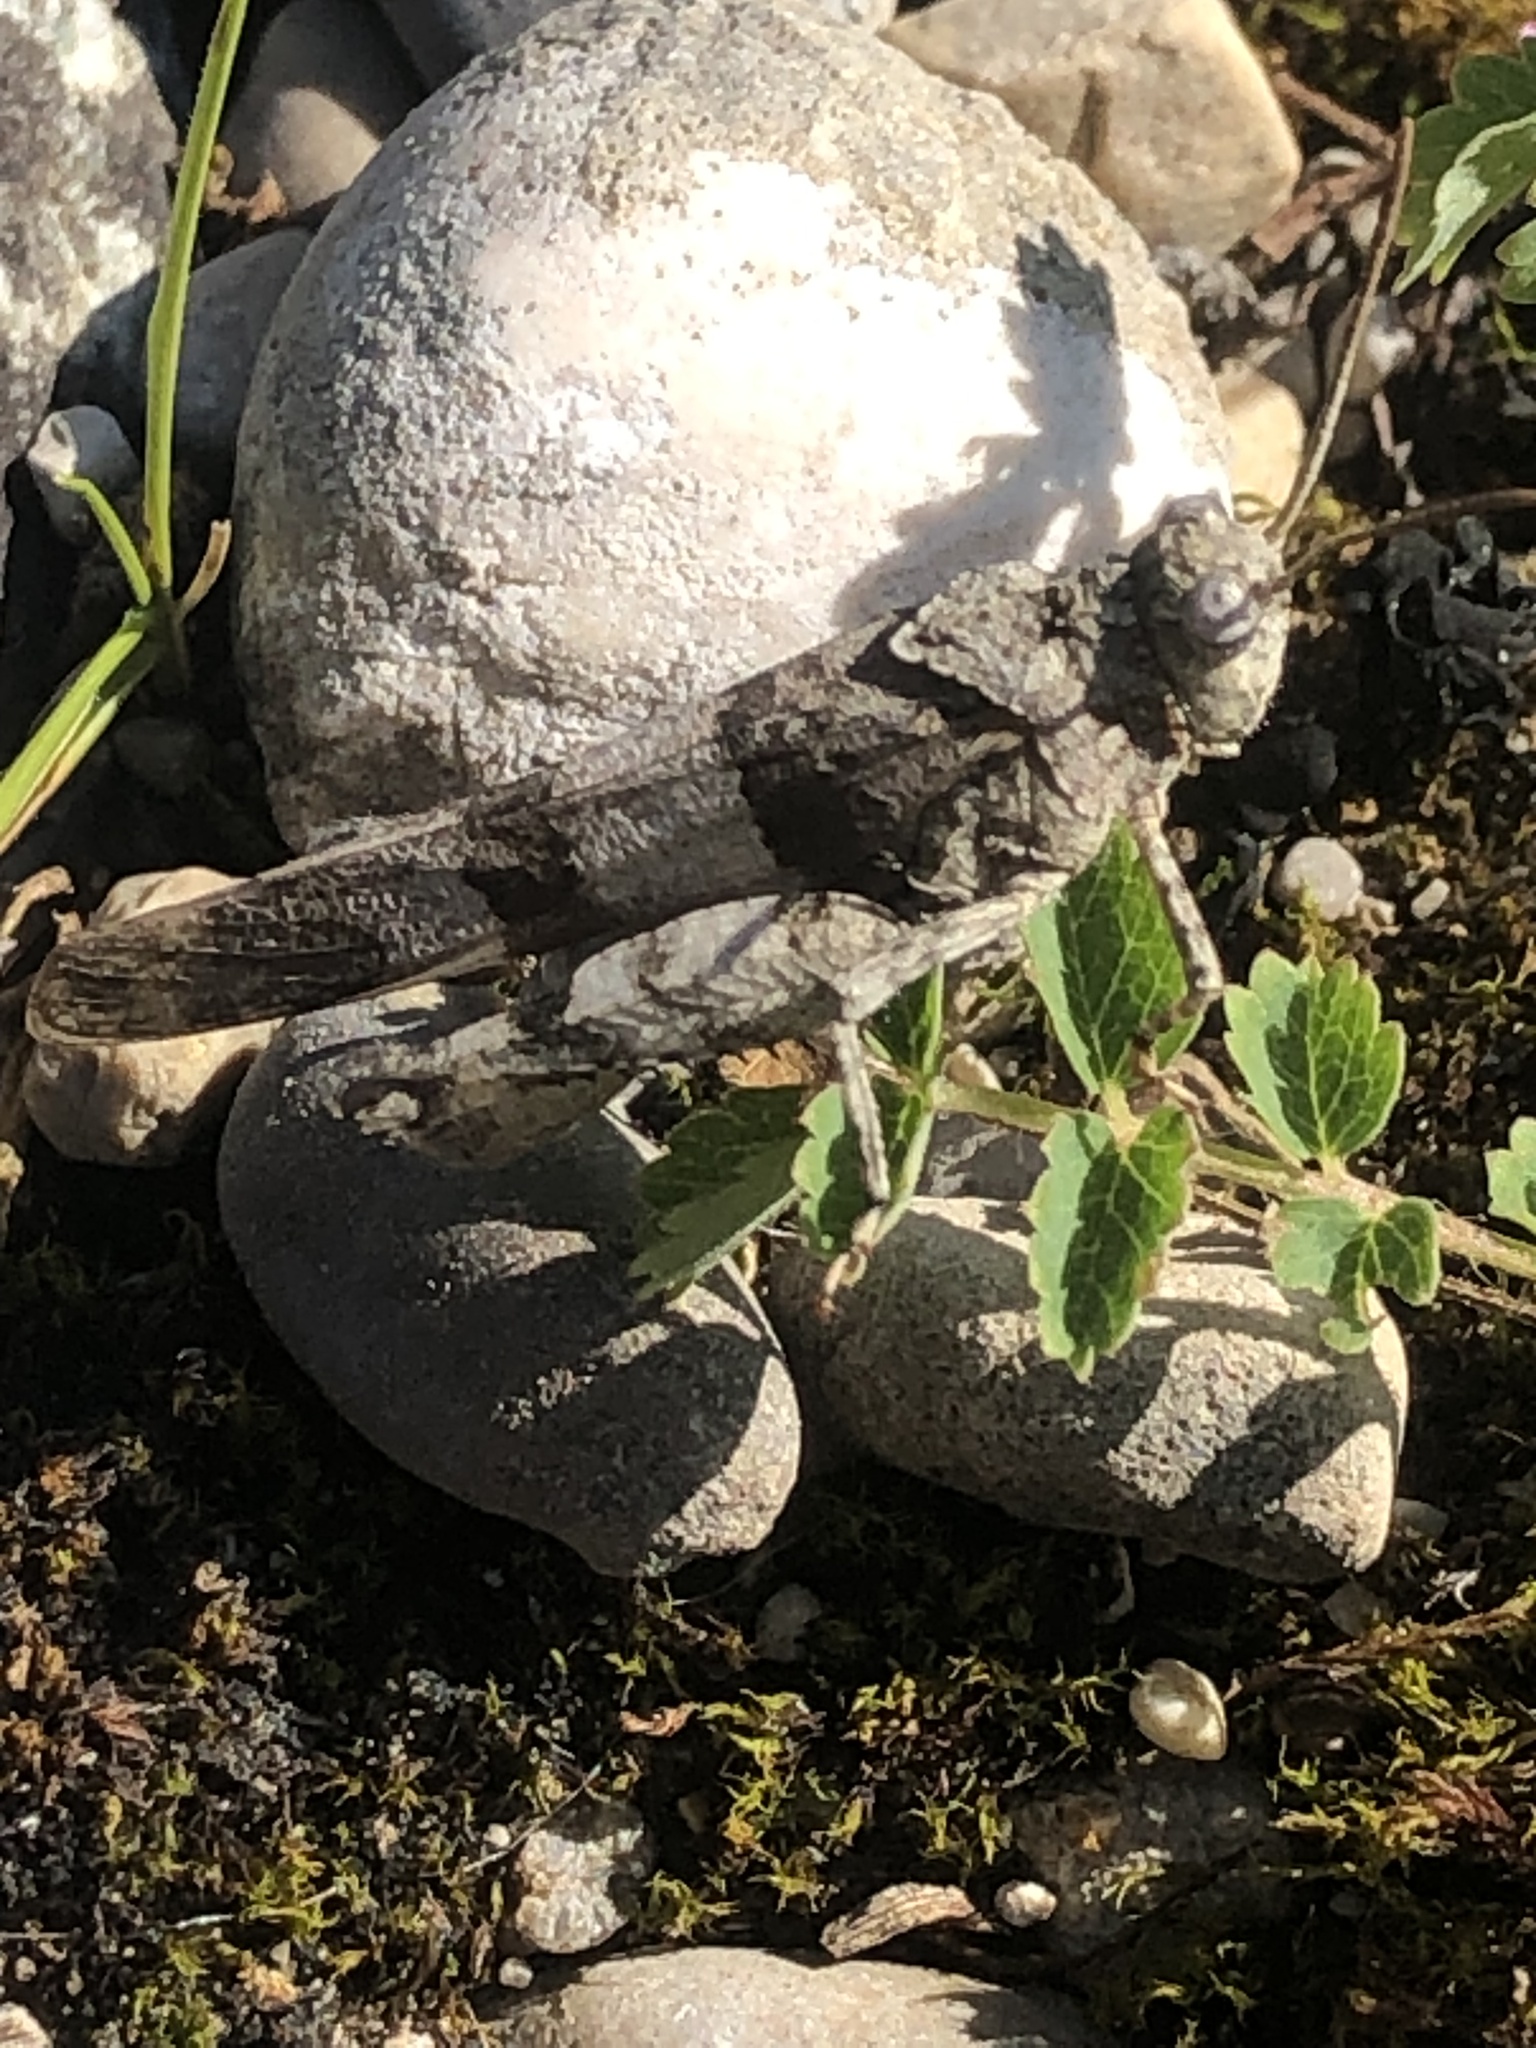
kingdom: Animalia
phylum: Arthropoda
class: Insecta
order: Orthoptera
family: Acrididae
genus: Oedipoda
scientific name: Oedipoda caerulescens
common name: Blue-winged grasshopper
